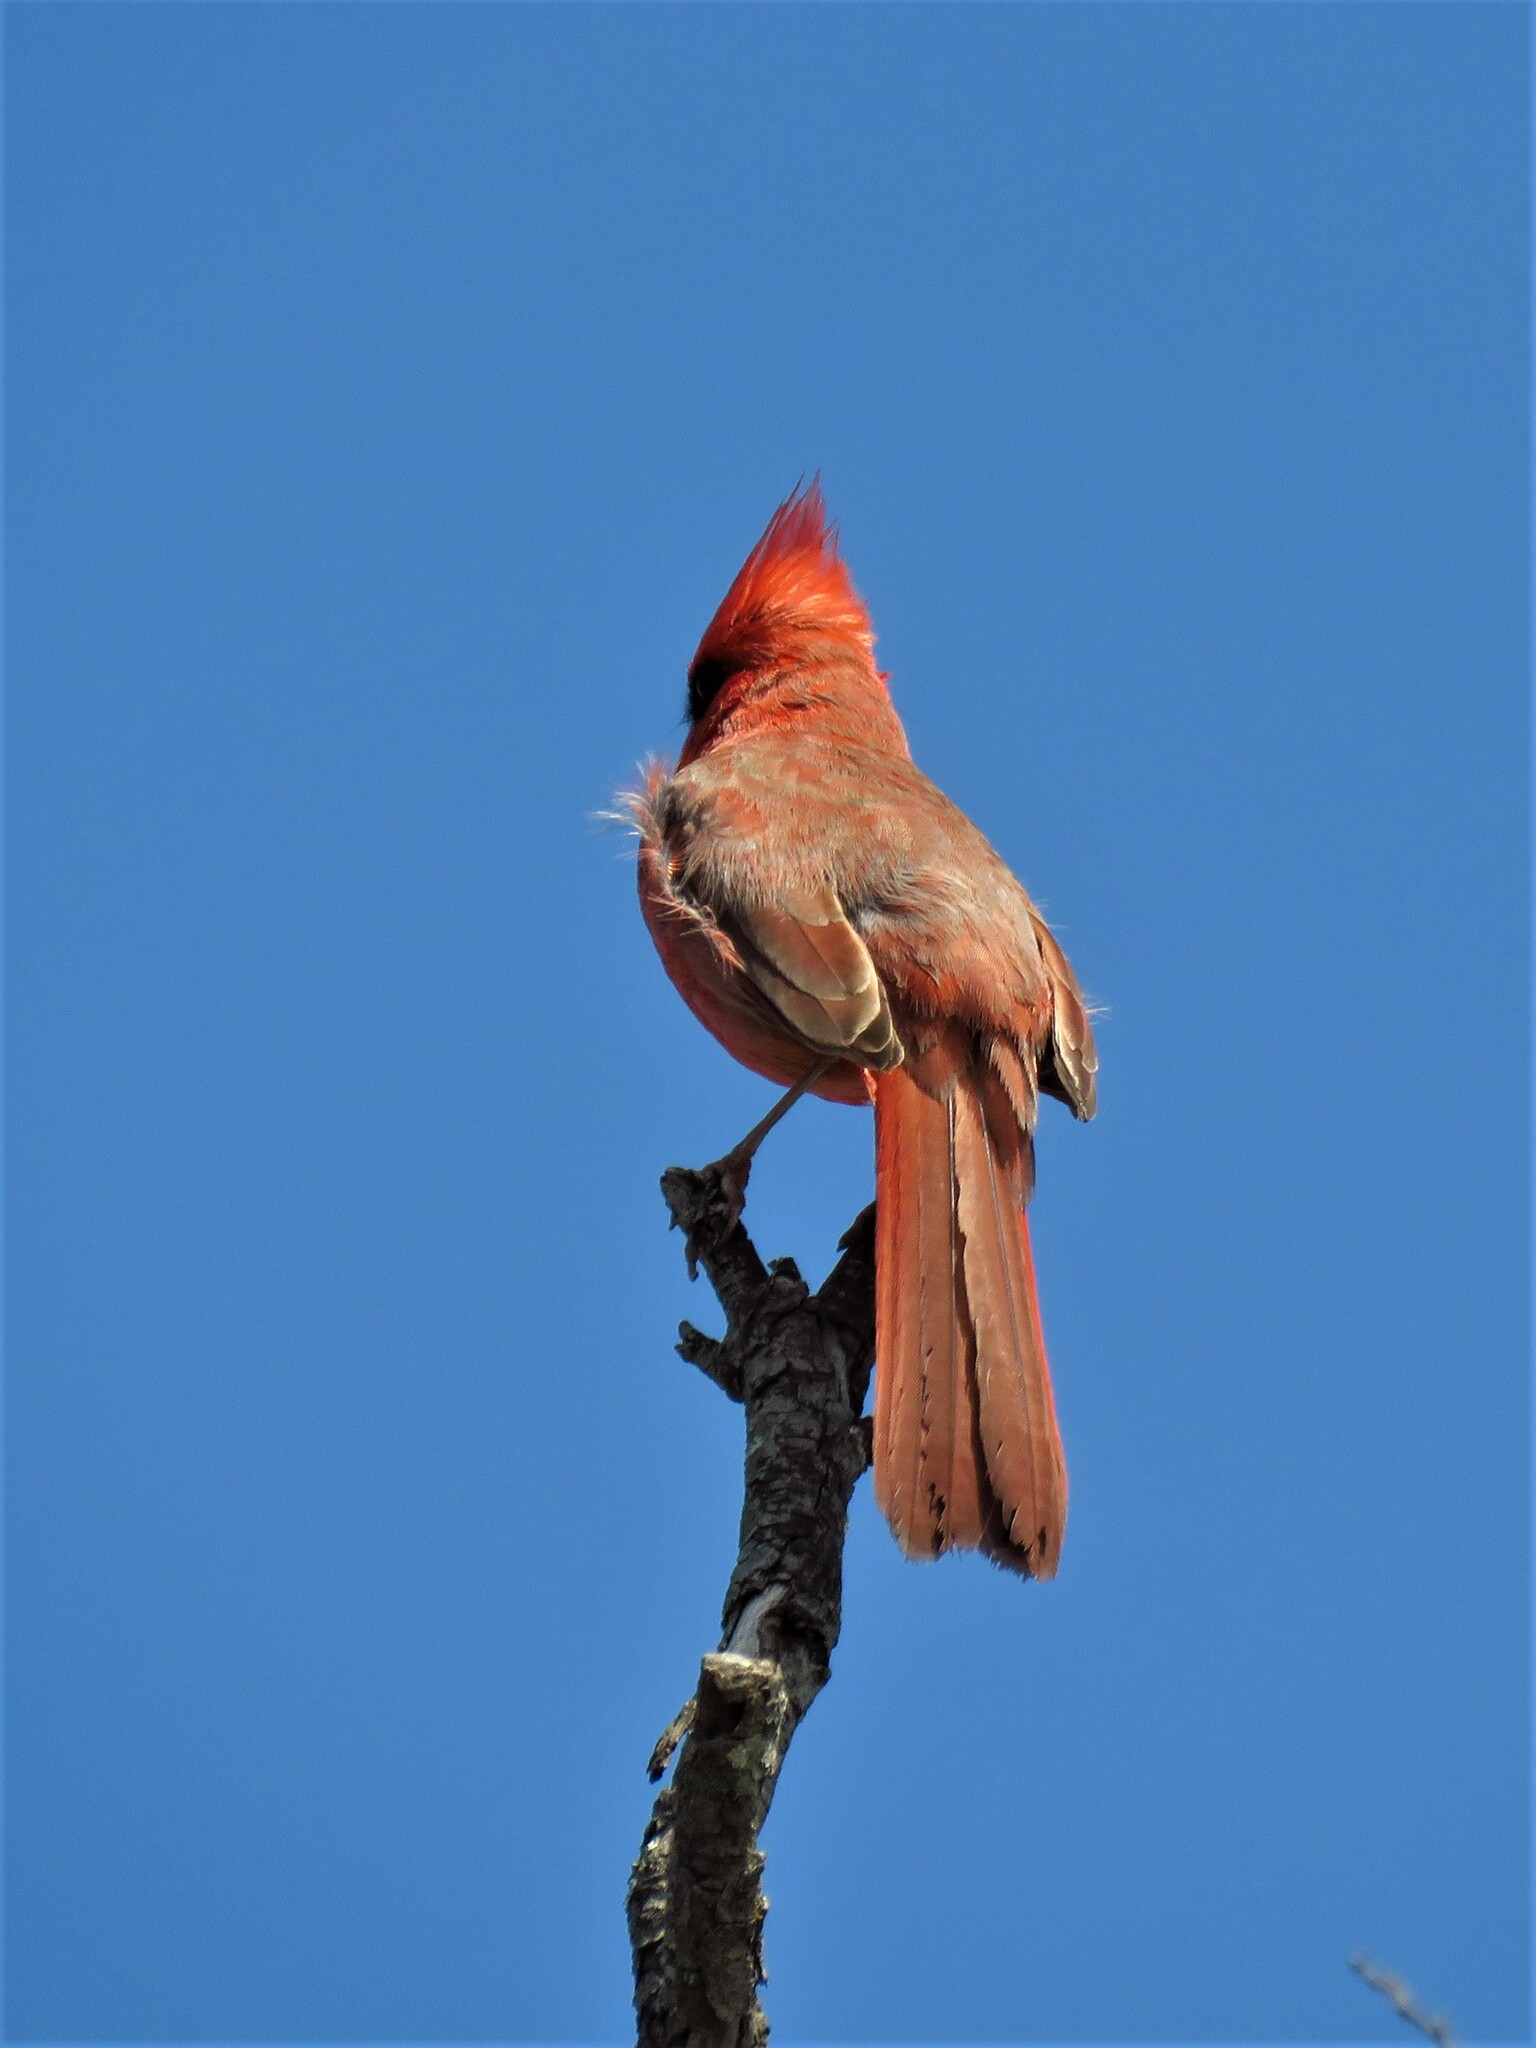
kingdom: Animalia
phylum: Chordata
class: Aves
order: Passeriformes
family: Cardinalidae
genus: Cardinalis
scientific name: Cardinalis cardinalis
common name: Northern cardinal
